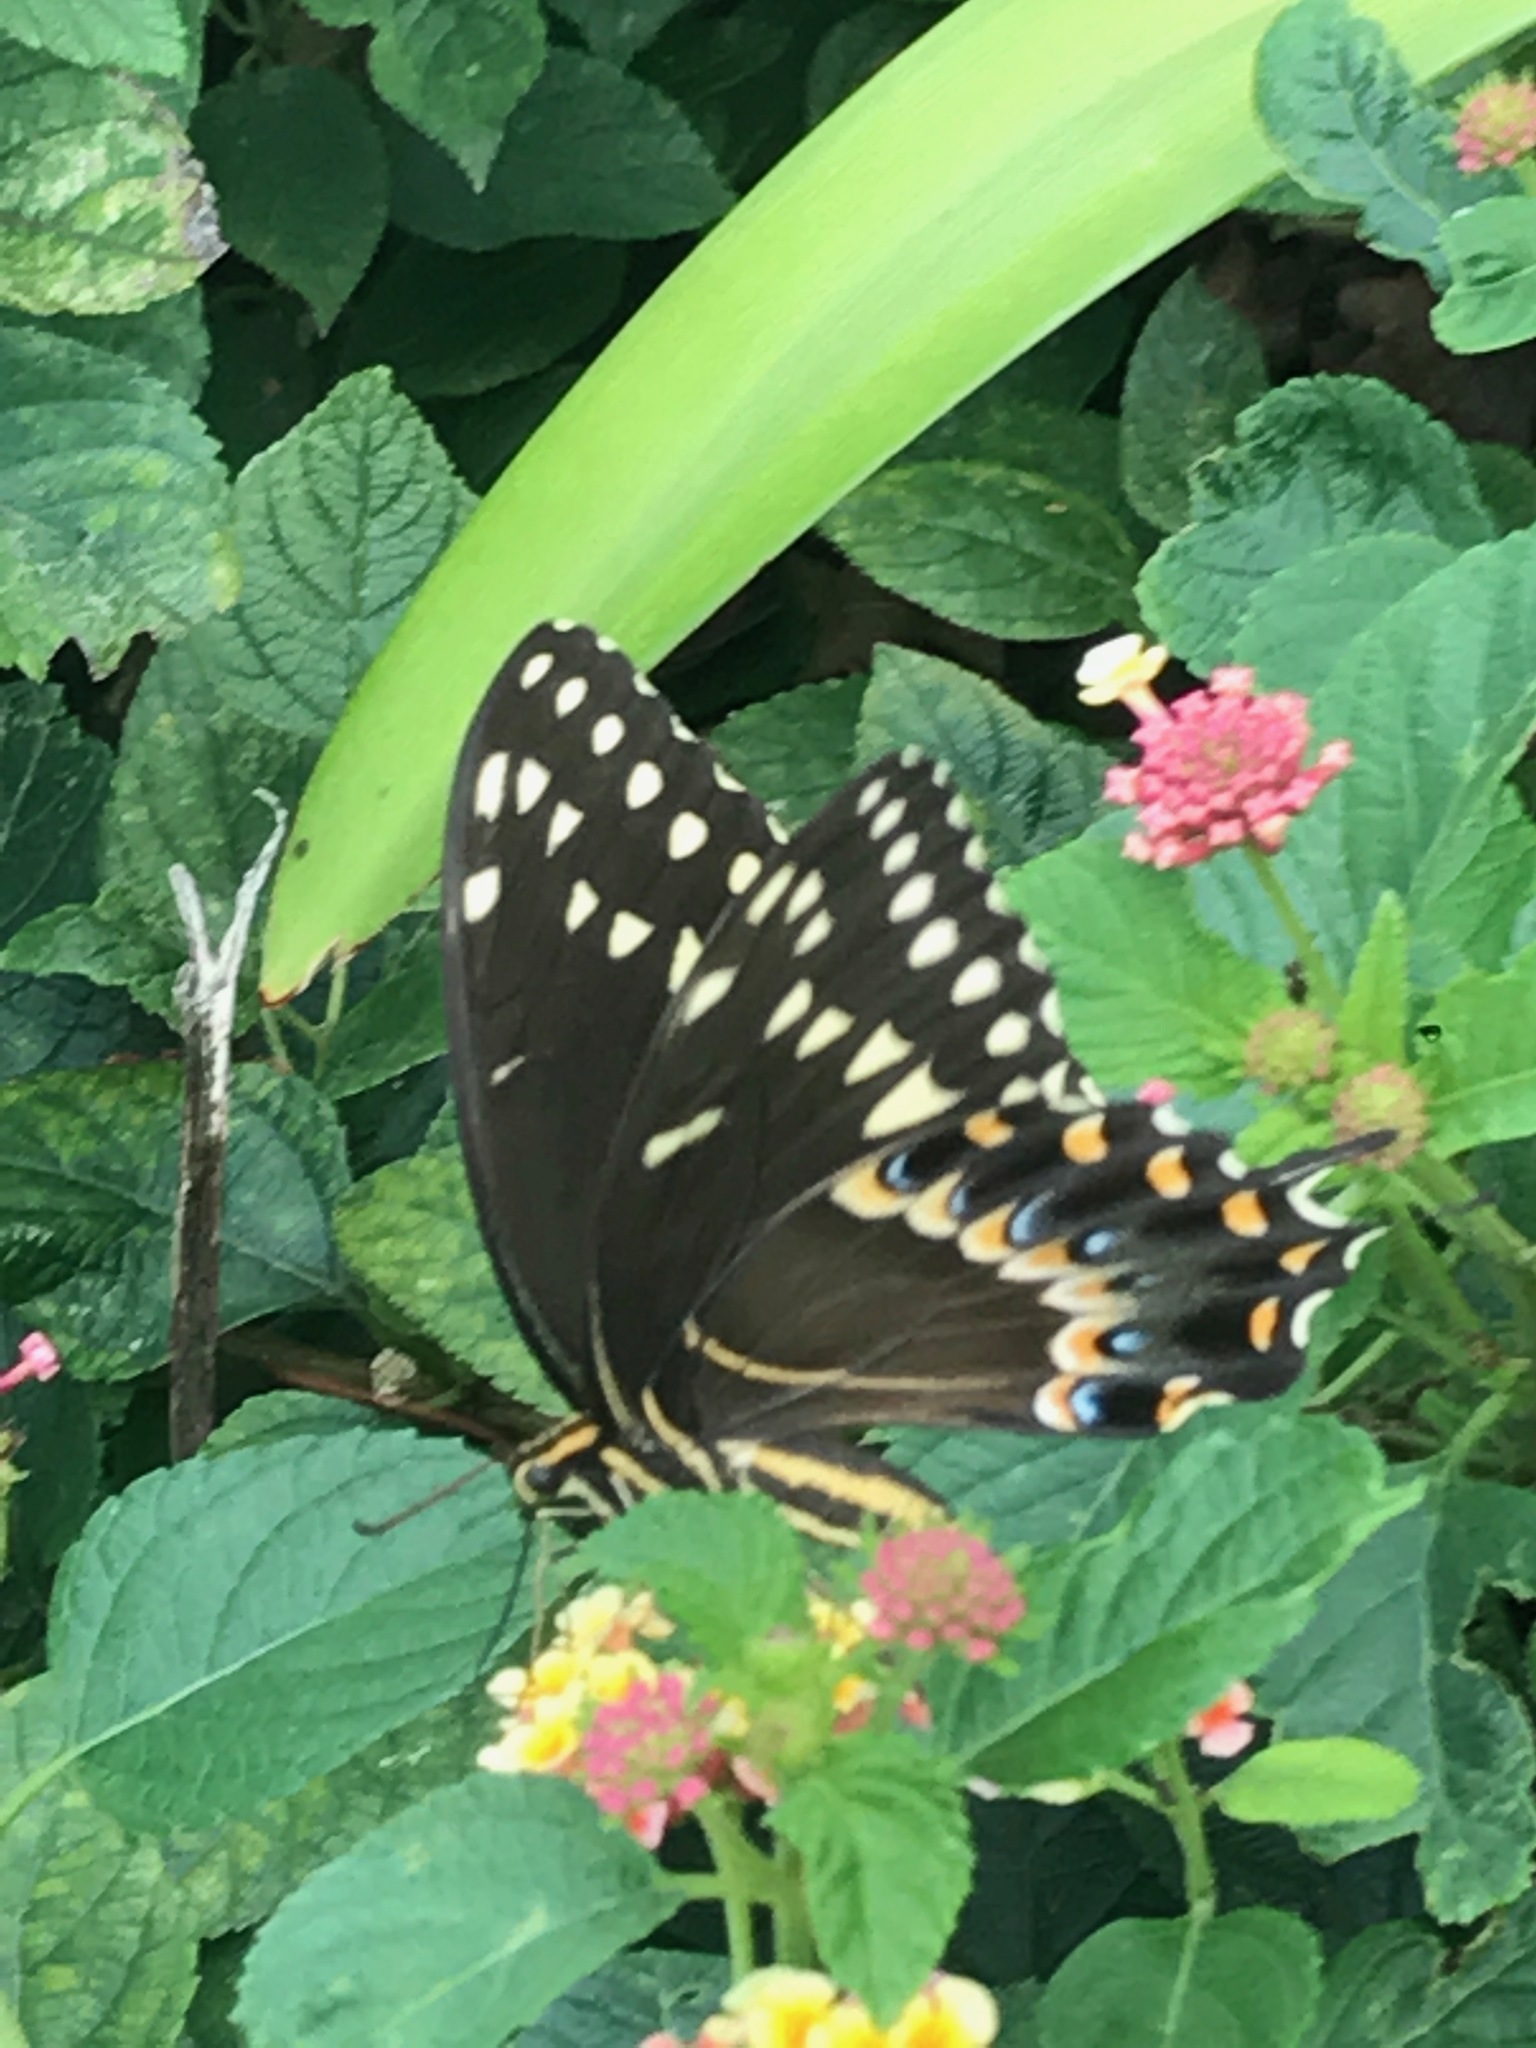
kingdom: Animalia
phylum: Arthropoda
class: Insecta
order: Lepidoptera
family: Papilionidae
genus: Papilio
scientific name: Papilio palamedes
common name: Palamedes swallowtail
